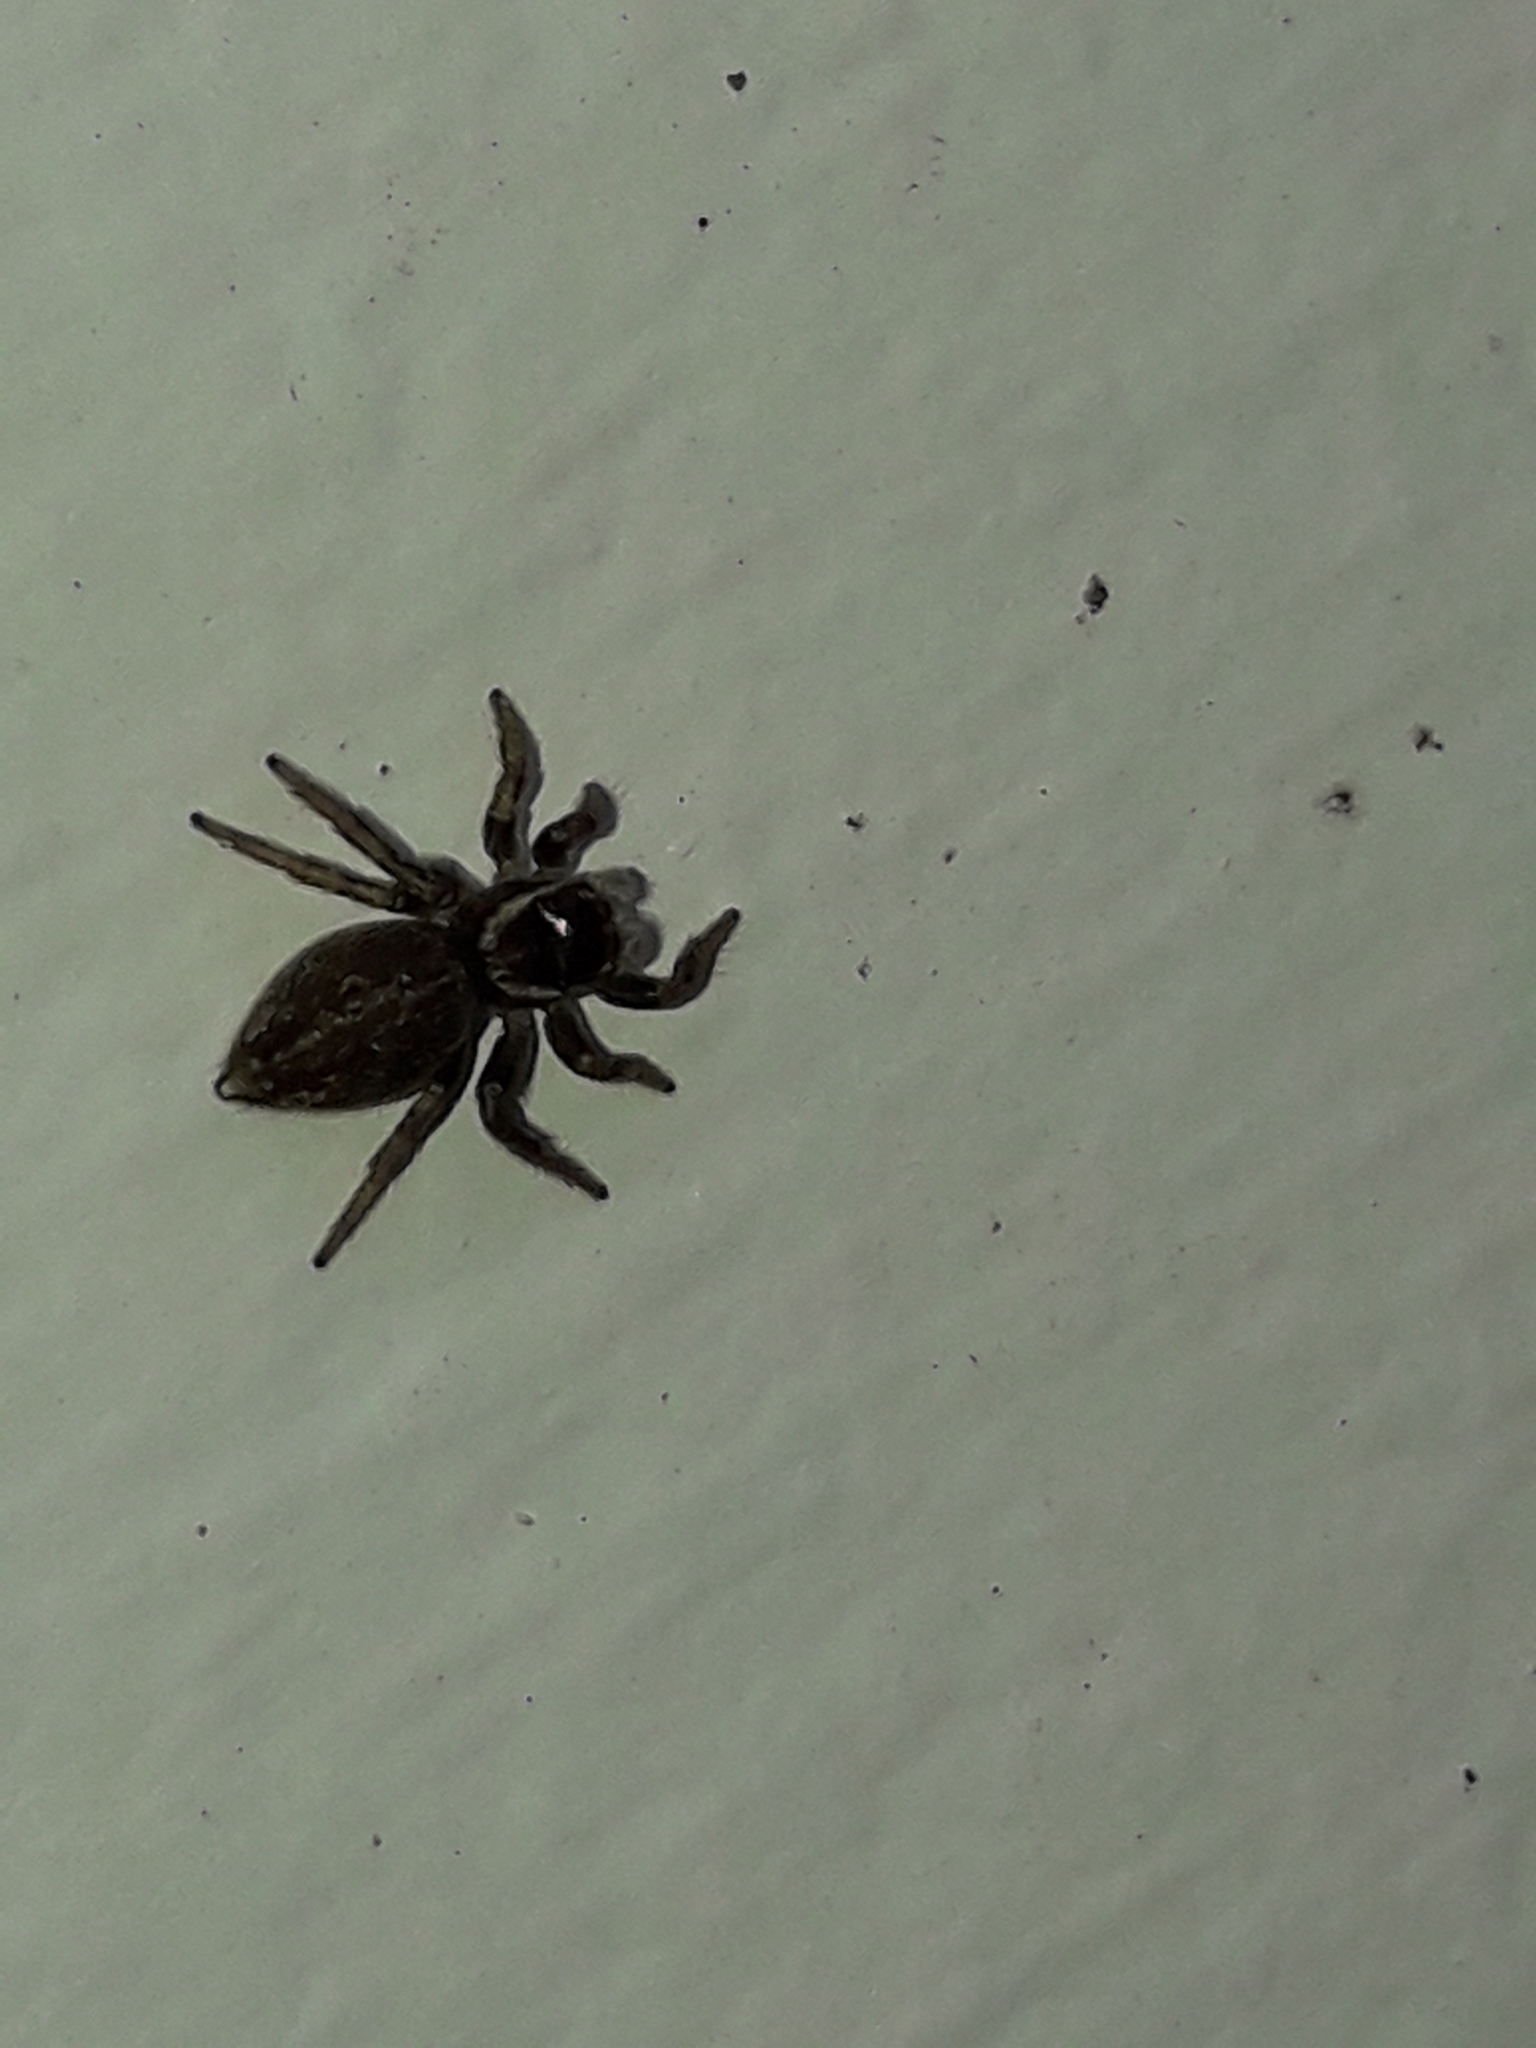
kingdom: Animalia
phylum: Arthropoda
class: Arachnida
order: Araneae
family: Salticidae
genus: Maratus
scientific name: Maratus griseus
